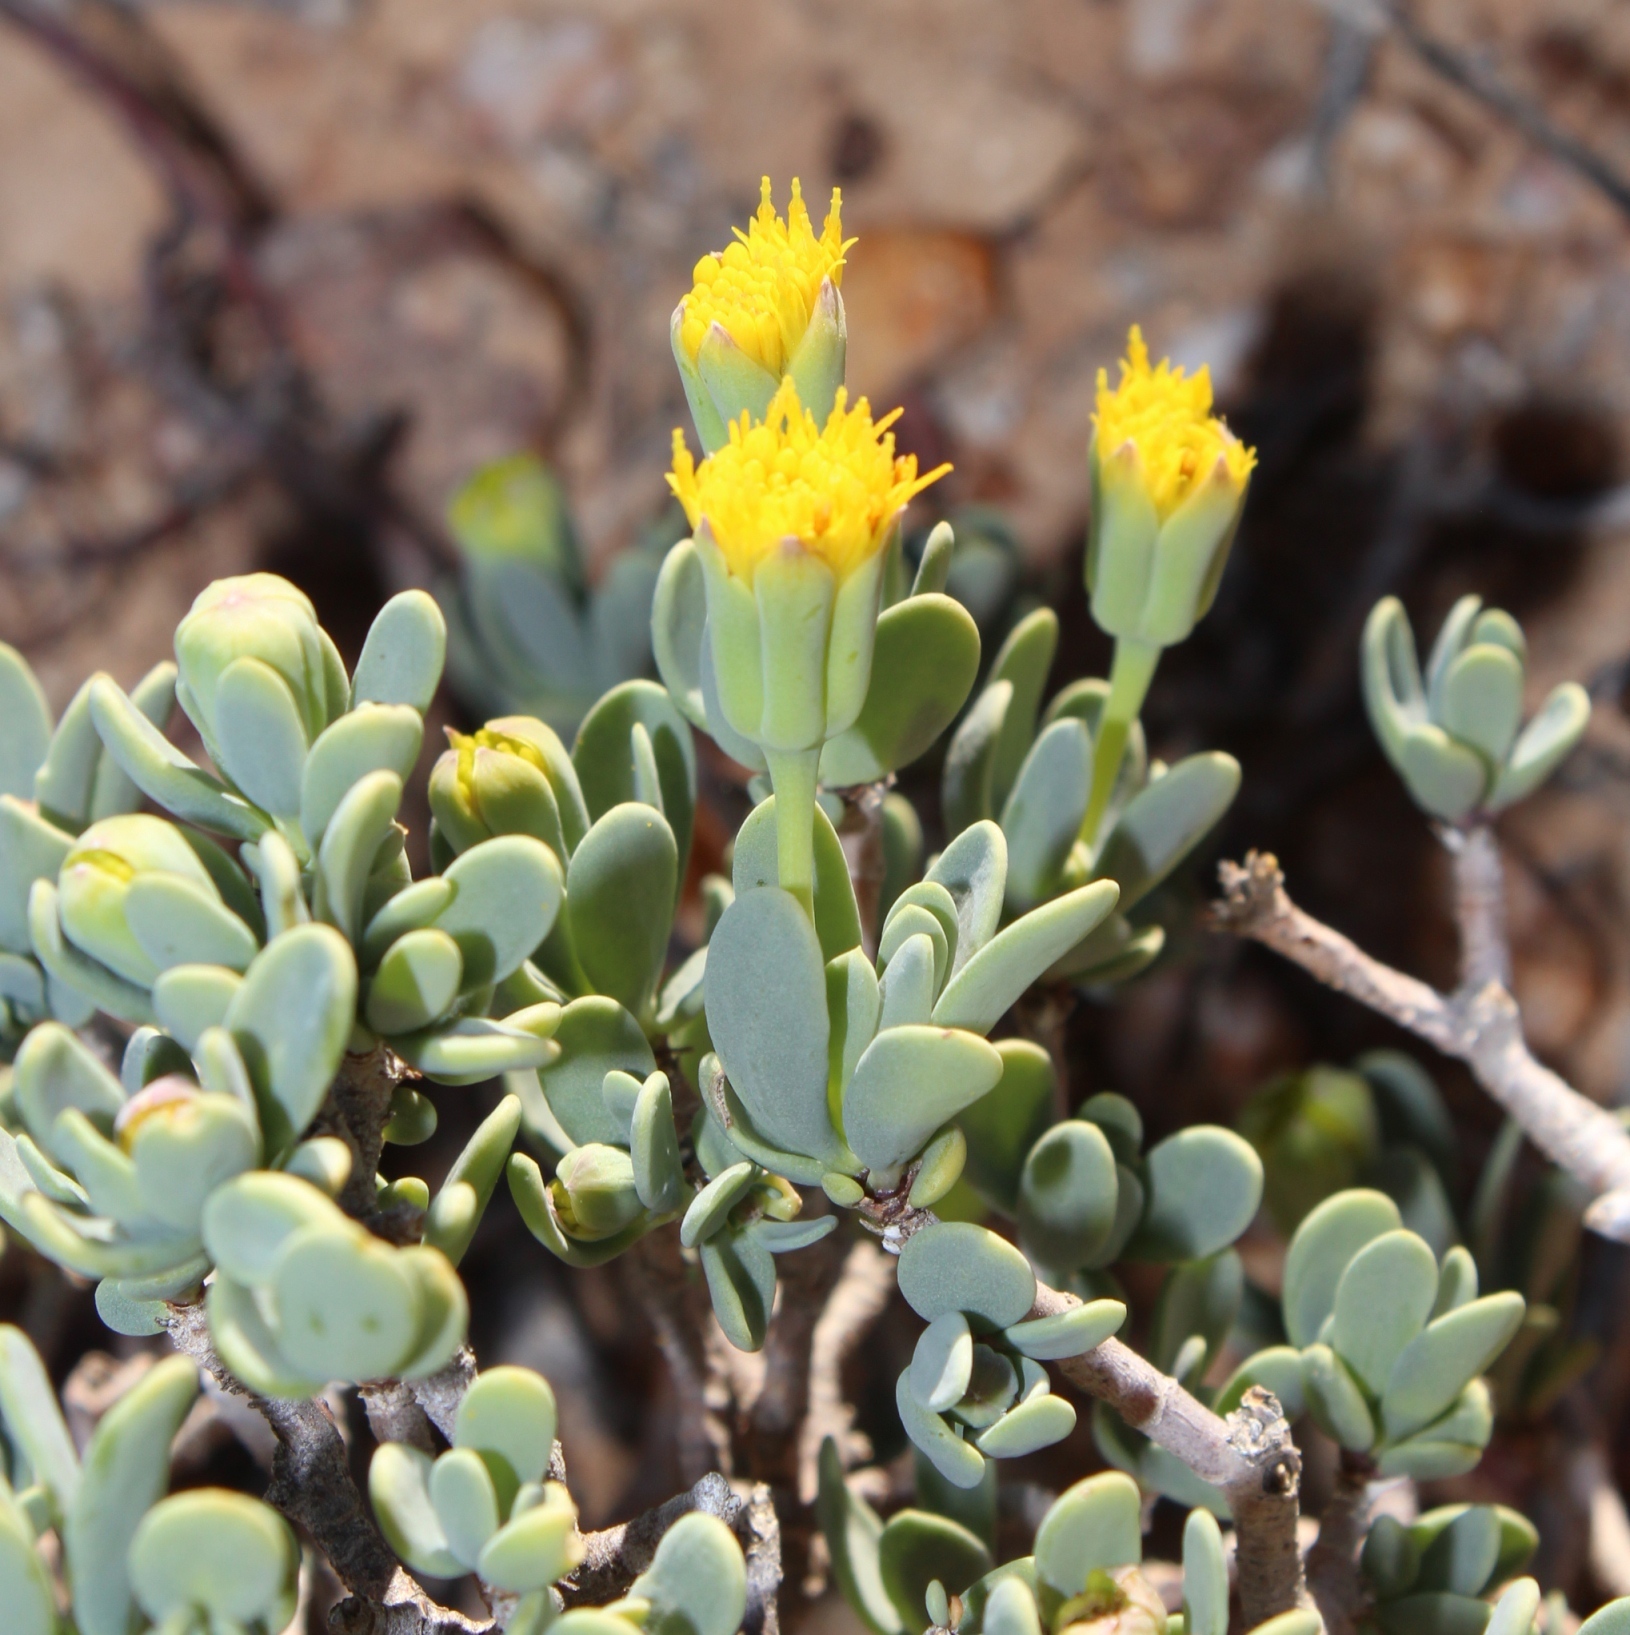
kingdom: Plantae
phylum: Tracheophyta
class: Magnoliopsida
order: Asterales
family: Asteraceae
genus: Othonna
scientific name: Othonna arbuscula
